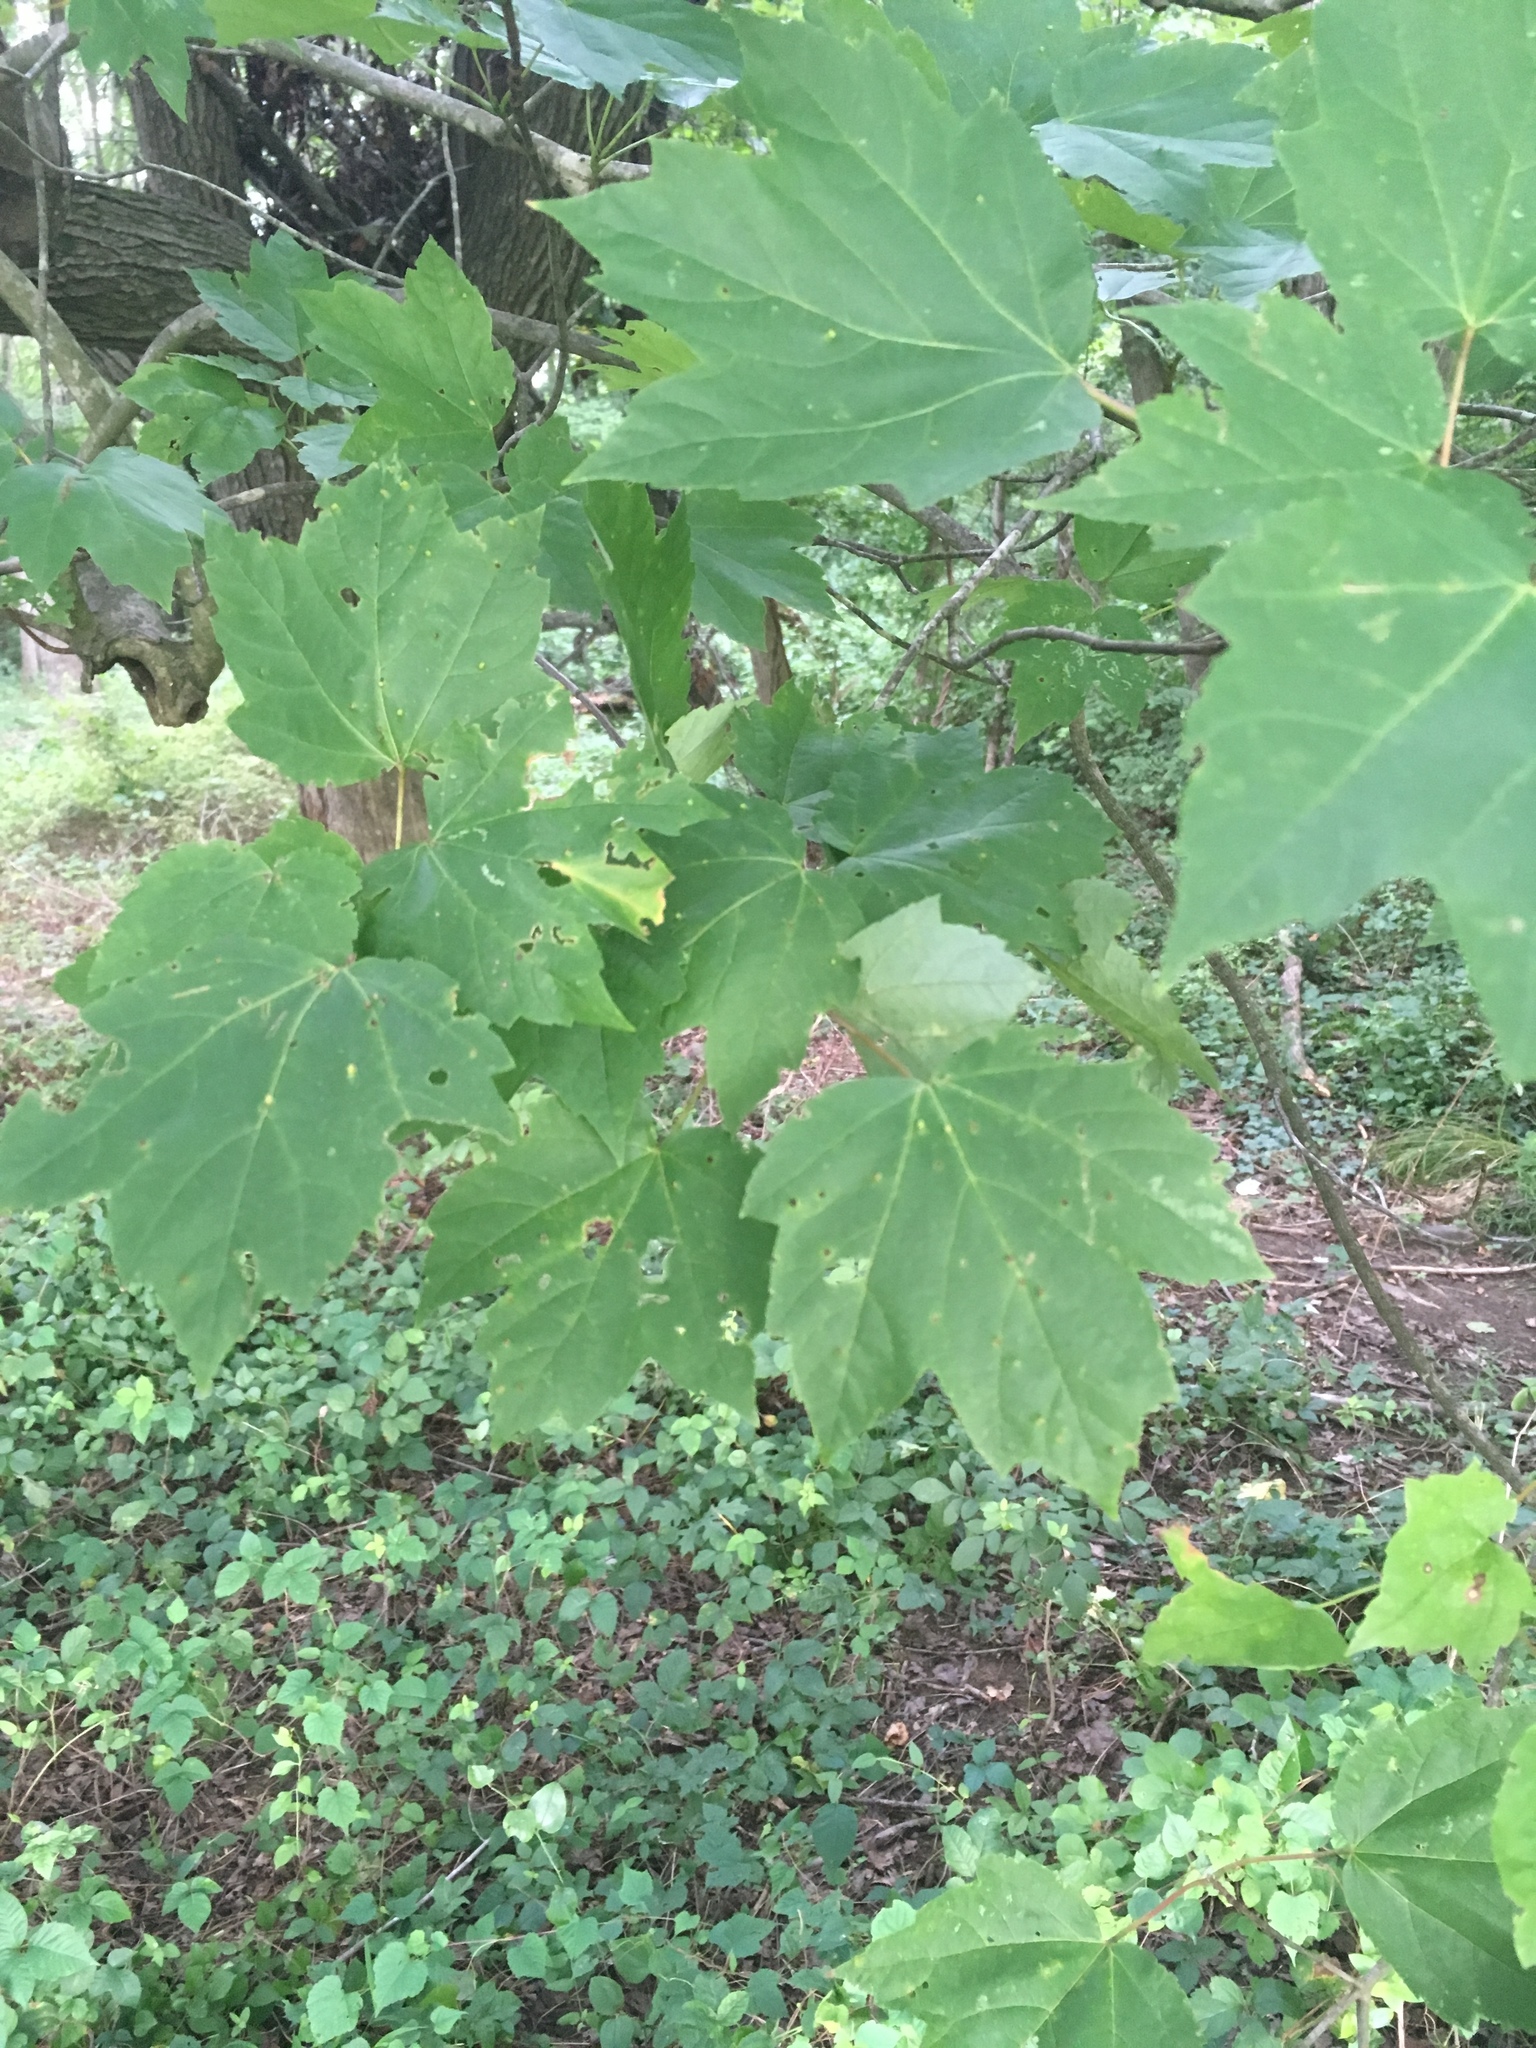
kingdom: Plantae
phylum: Tracheophyta
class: Magnoliopsida
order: Sapindales
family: Sapindaceae
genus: Acer
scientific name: Acer rubrum
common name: Red maple
